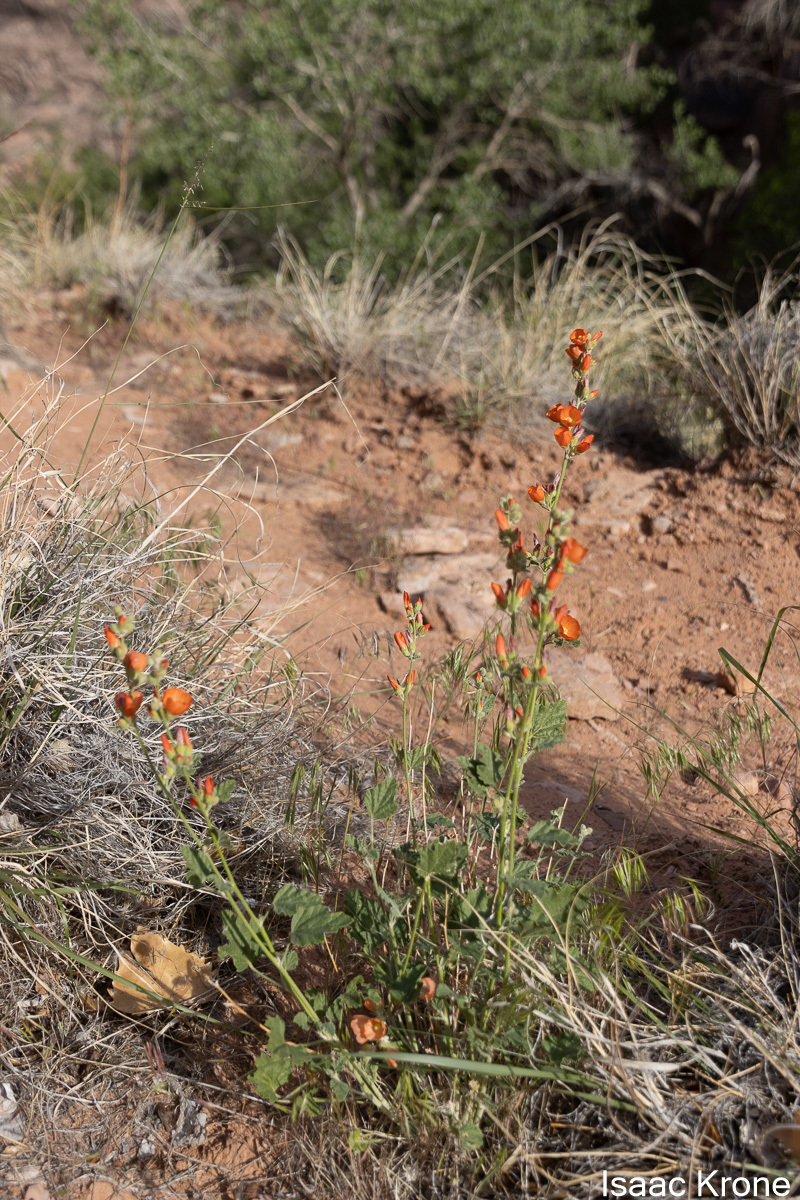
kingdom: Plantae
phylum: Tracheophyta
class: Magnoliopsida
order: Malvales
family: Malvaceae
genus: Sphaeralcea
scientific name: Sphaeralcea parvifolia
